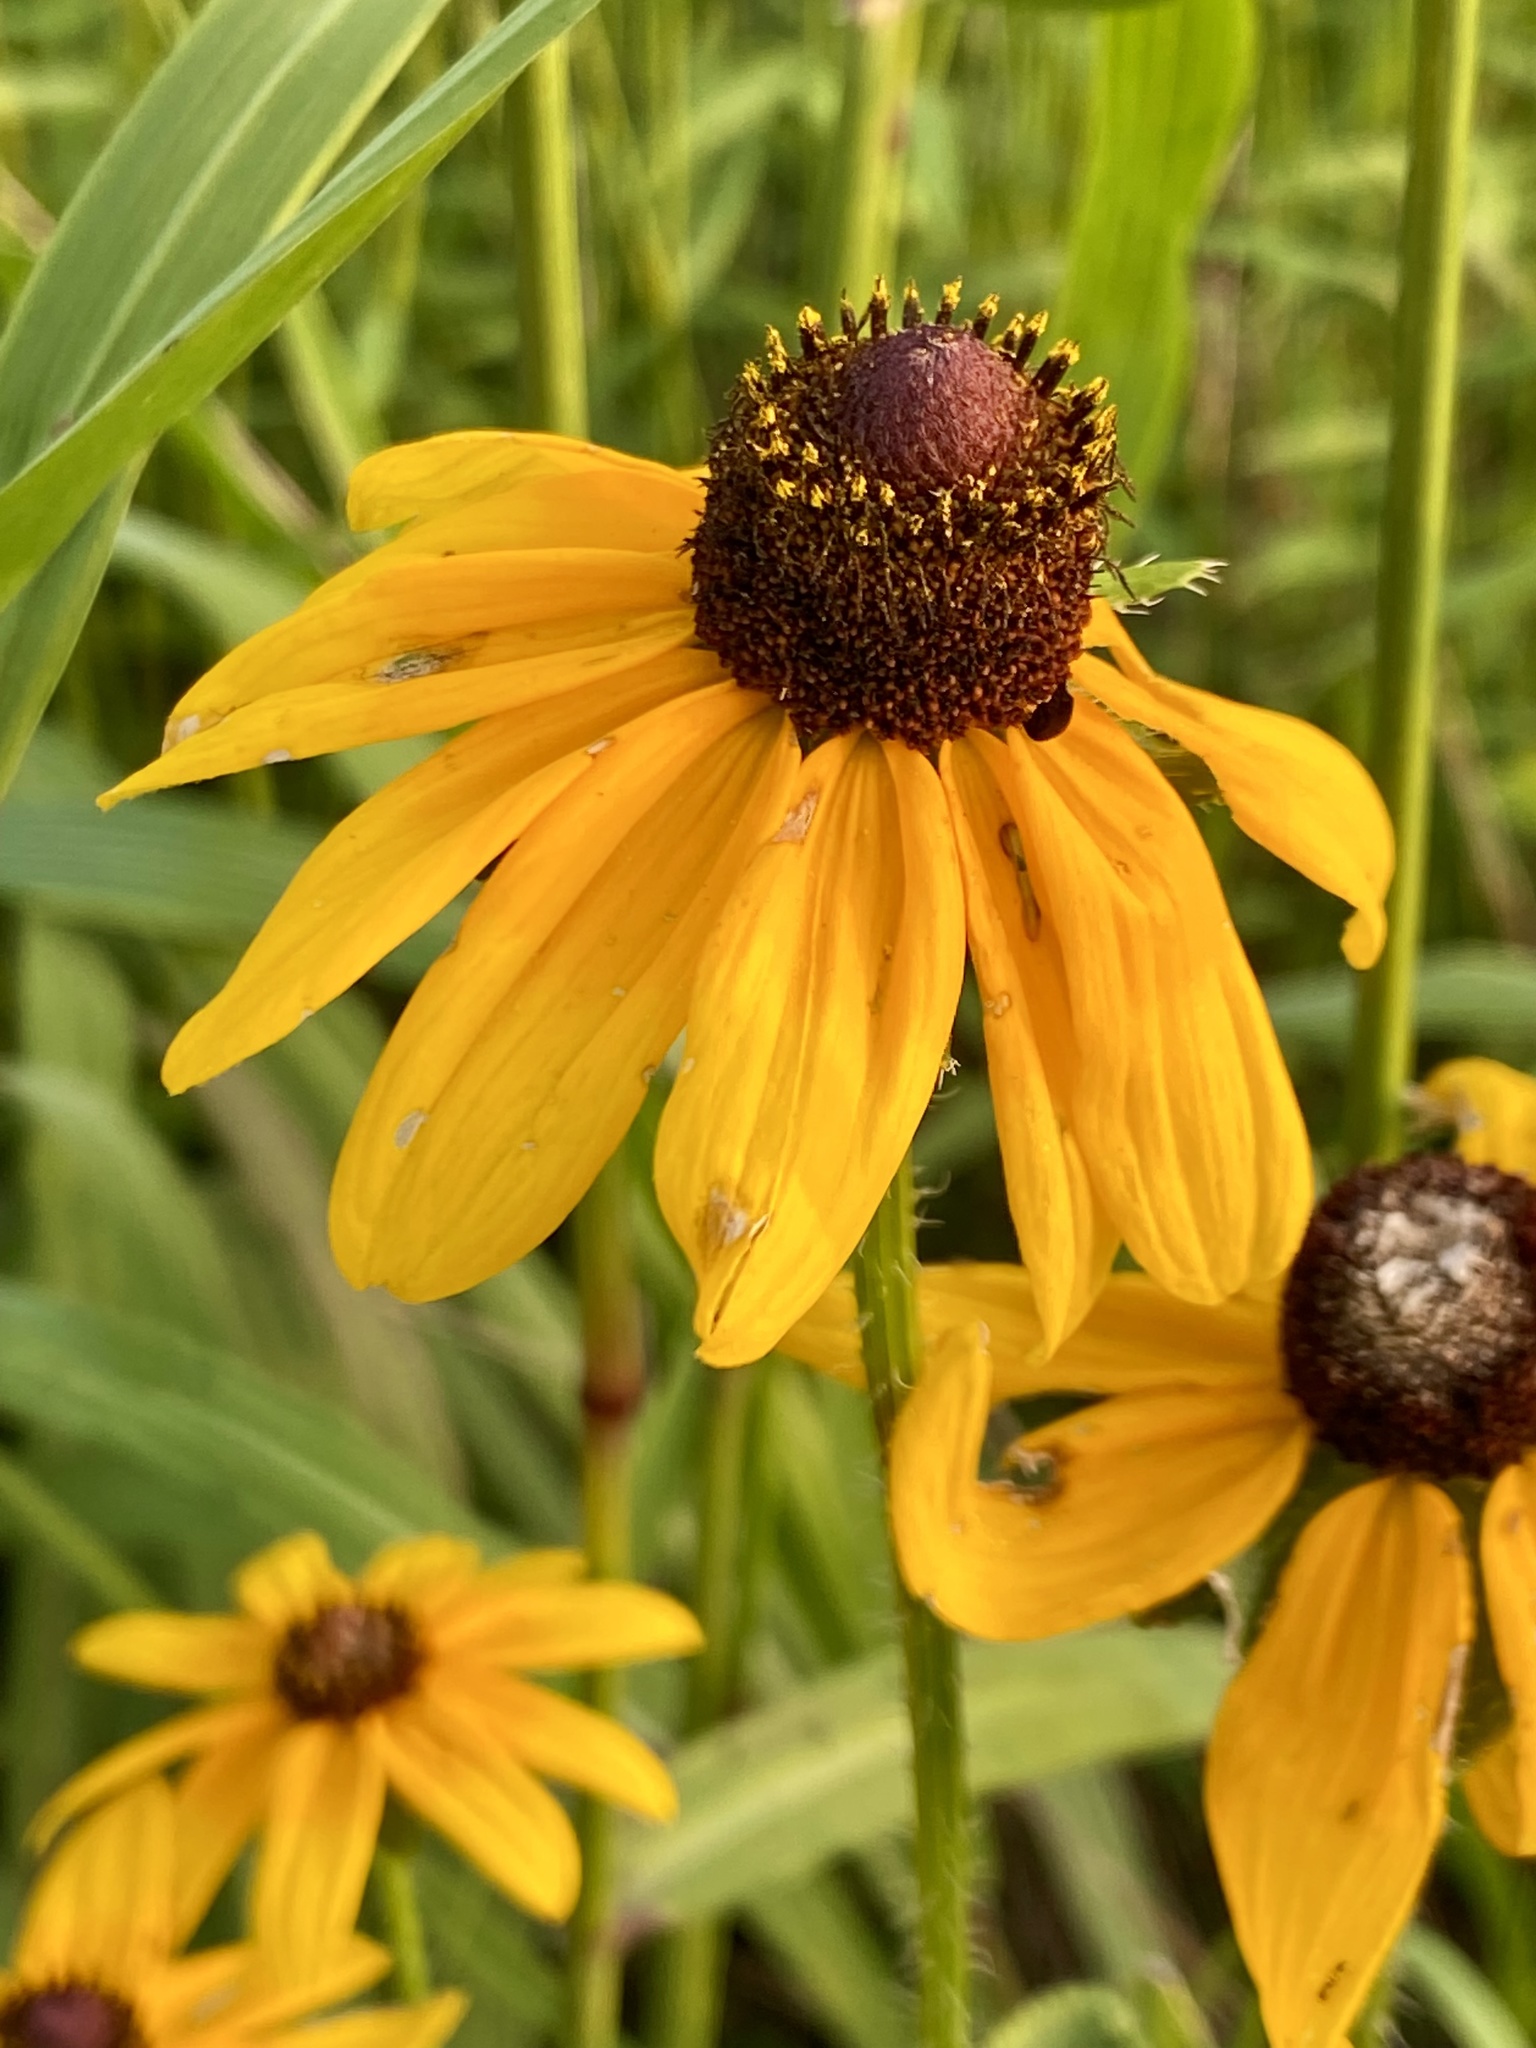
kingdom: Plantae
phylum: Tracheophyta
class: Magnoliopsida
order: Asterales
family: Asteraceae
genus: Rudbeckia
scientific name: Rudbeckia hirta
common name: Black-eyed-susan
